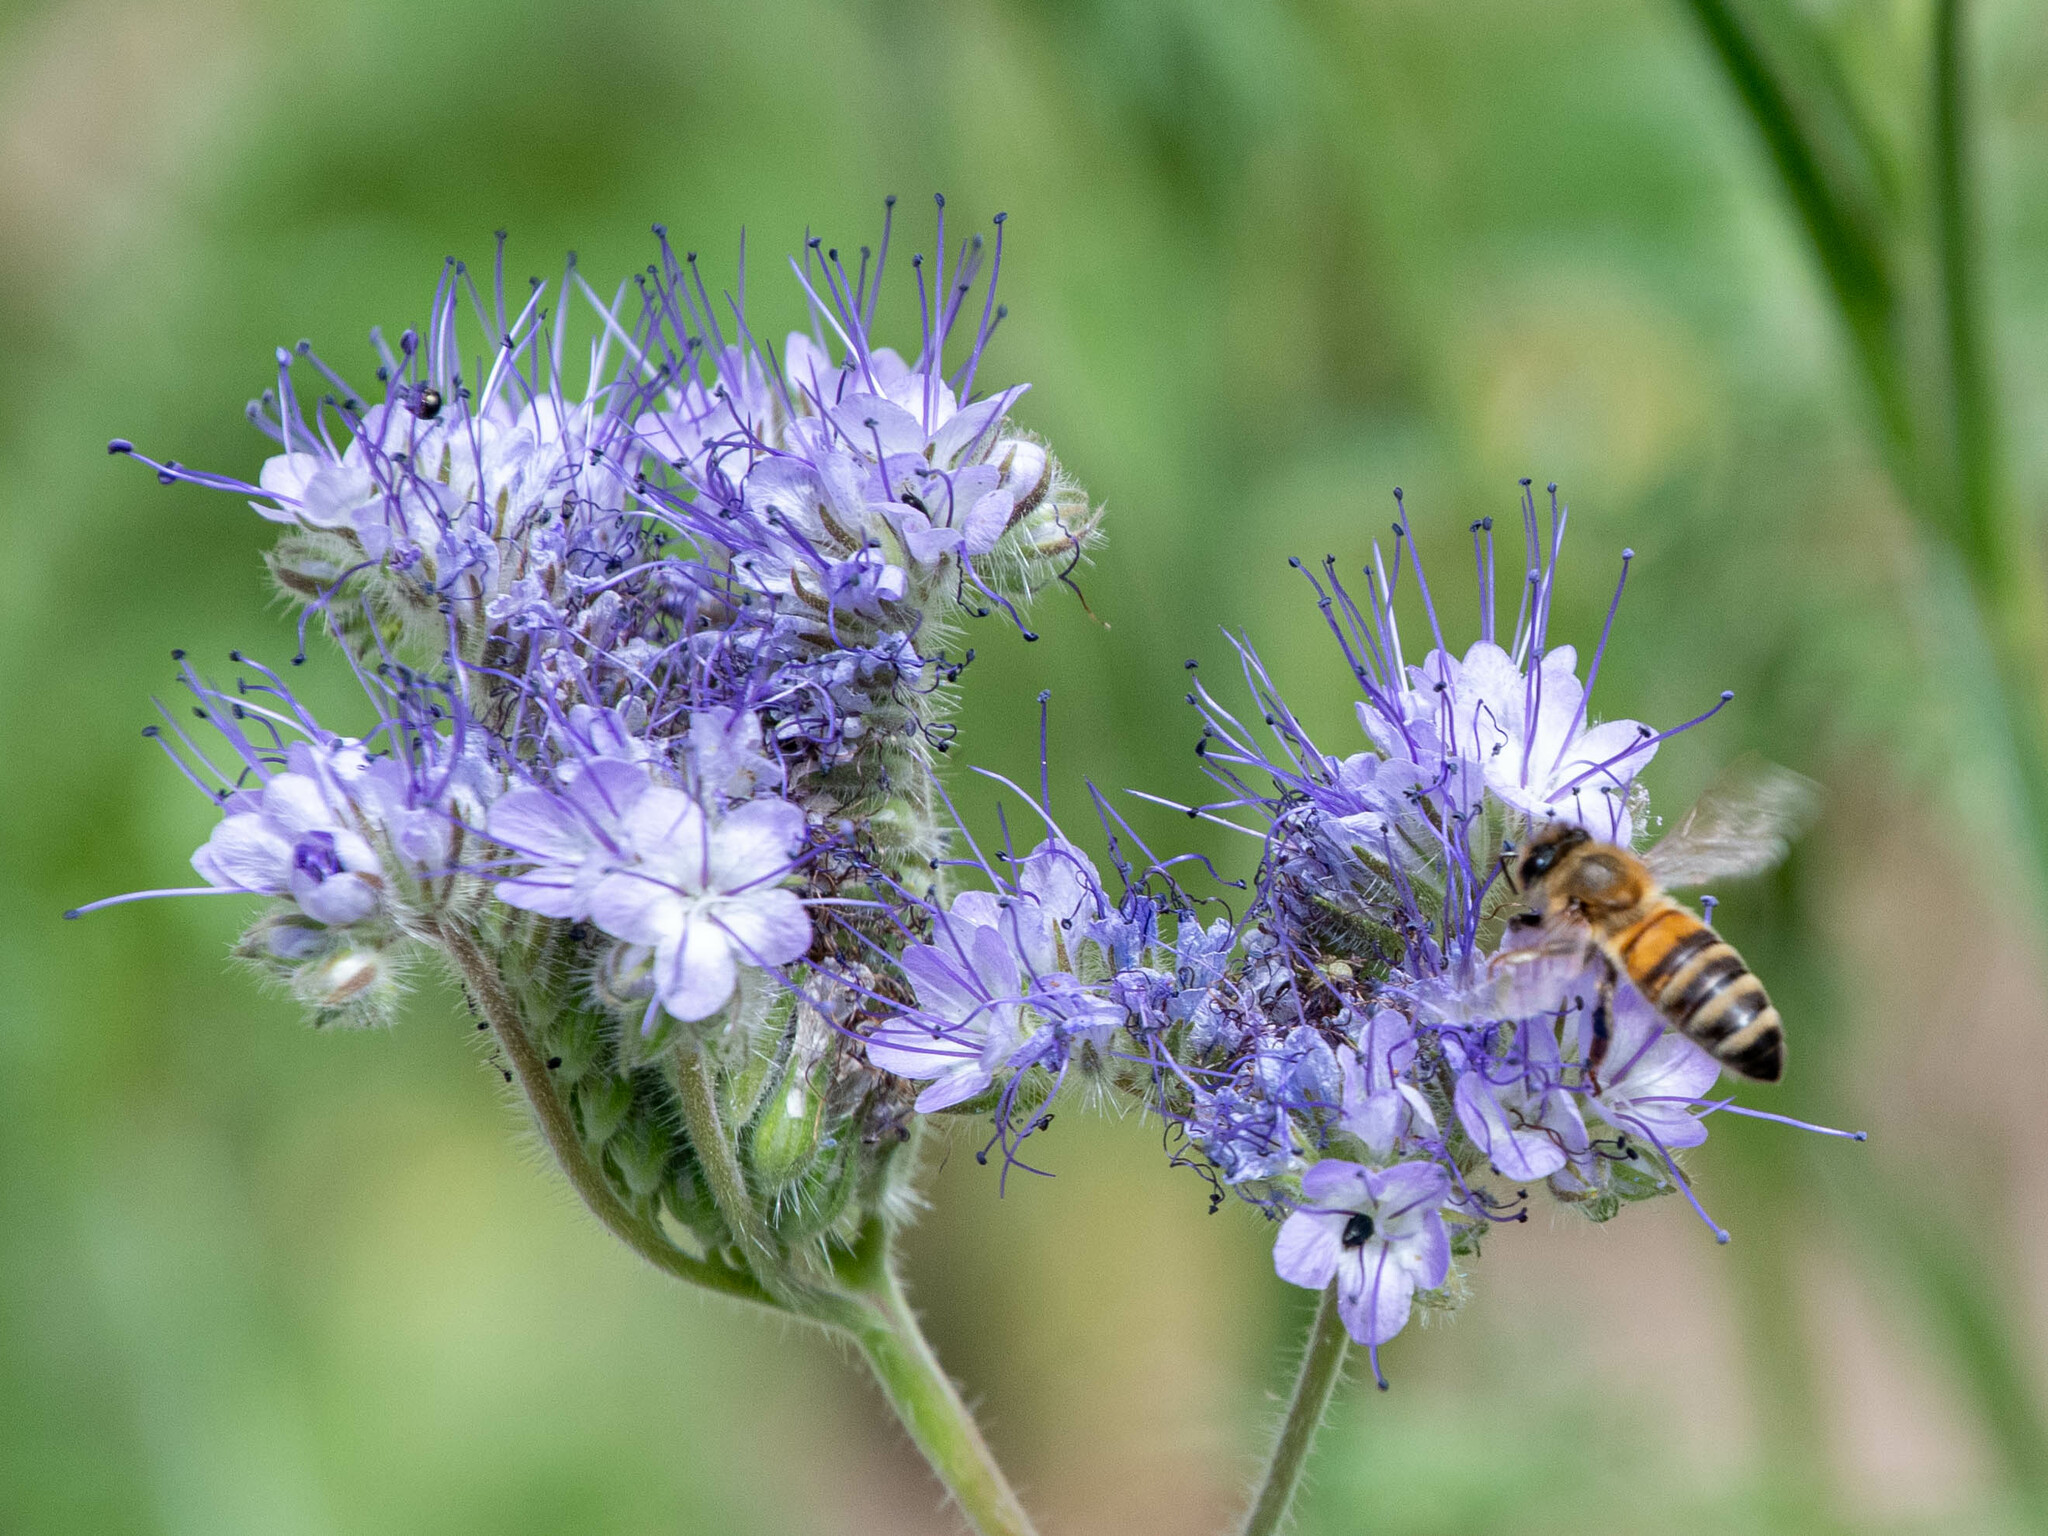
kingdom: Plantae
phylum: Tracheophyta
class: Magnoliopsida
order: Boraginales
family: Hydrophyllaceae
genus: Phacelia
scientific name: Phacelia tanacetifolia
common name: Phacelia
